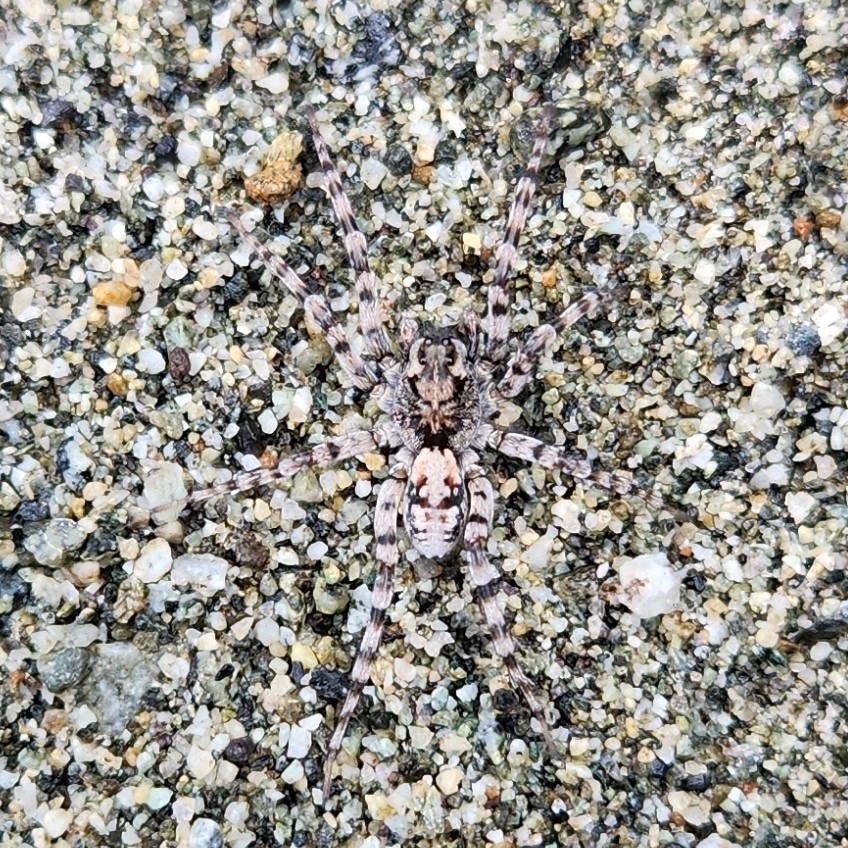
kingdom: Animalia
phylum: Arthropoda
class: Arachnida
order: Araneae
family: Lycosidae
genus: Arctosa
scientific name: Arctosa perita
